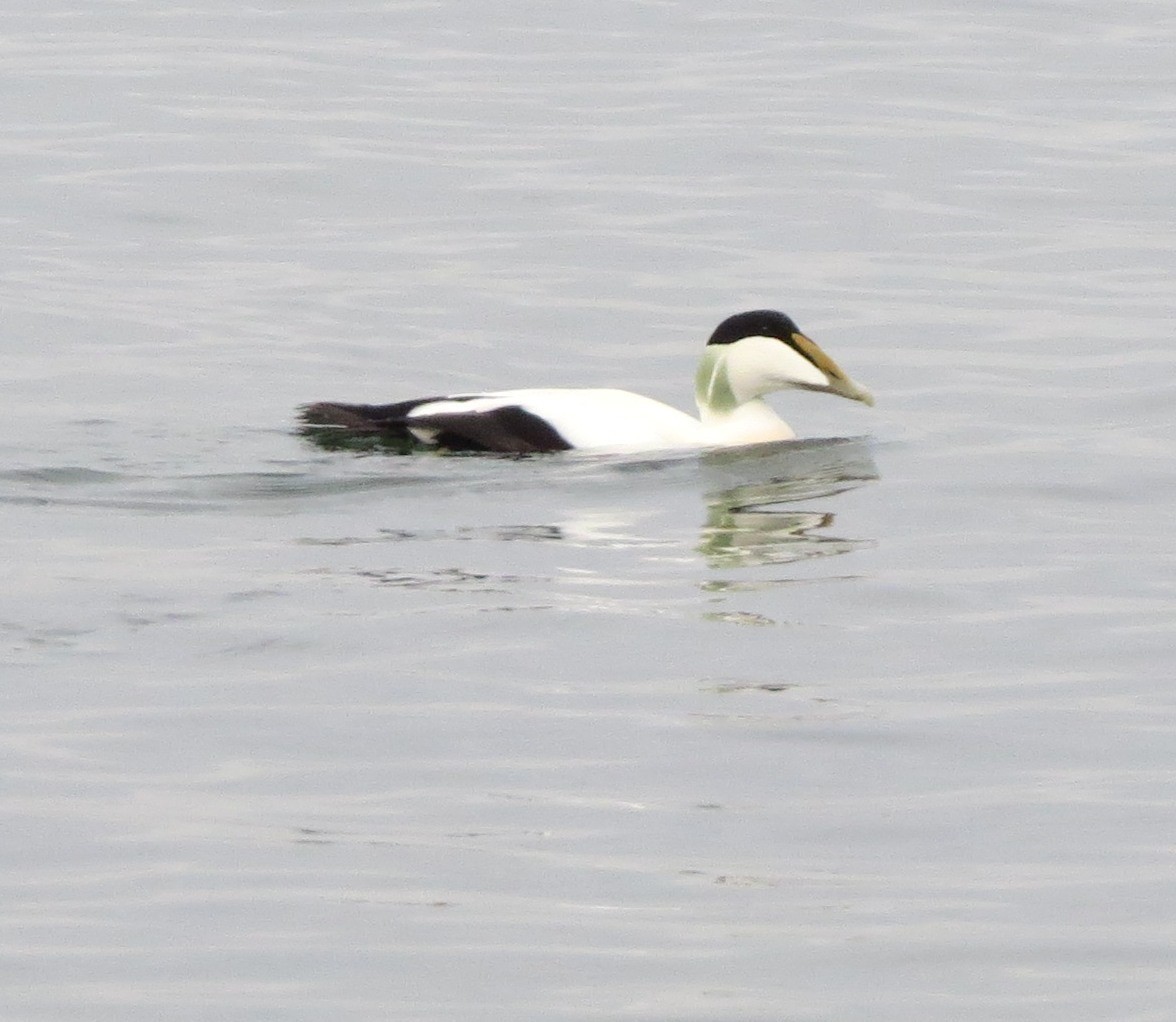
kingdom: Animalia
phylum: Chordata
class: Aves
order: Anseriformes
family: Anatidae
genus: Somateria
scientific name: Somateria mollissima
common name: Common eider
